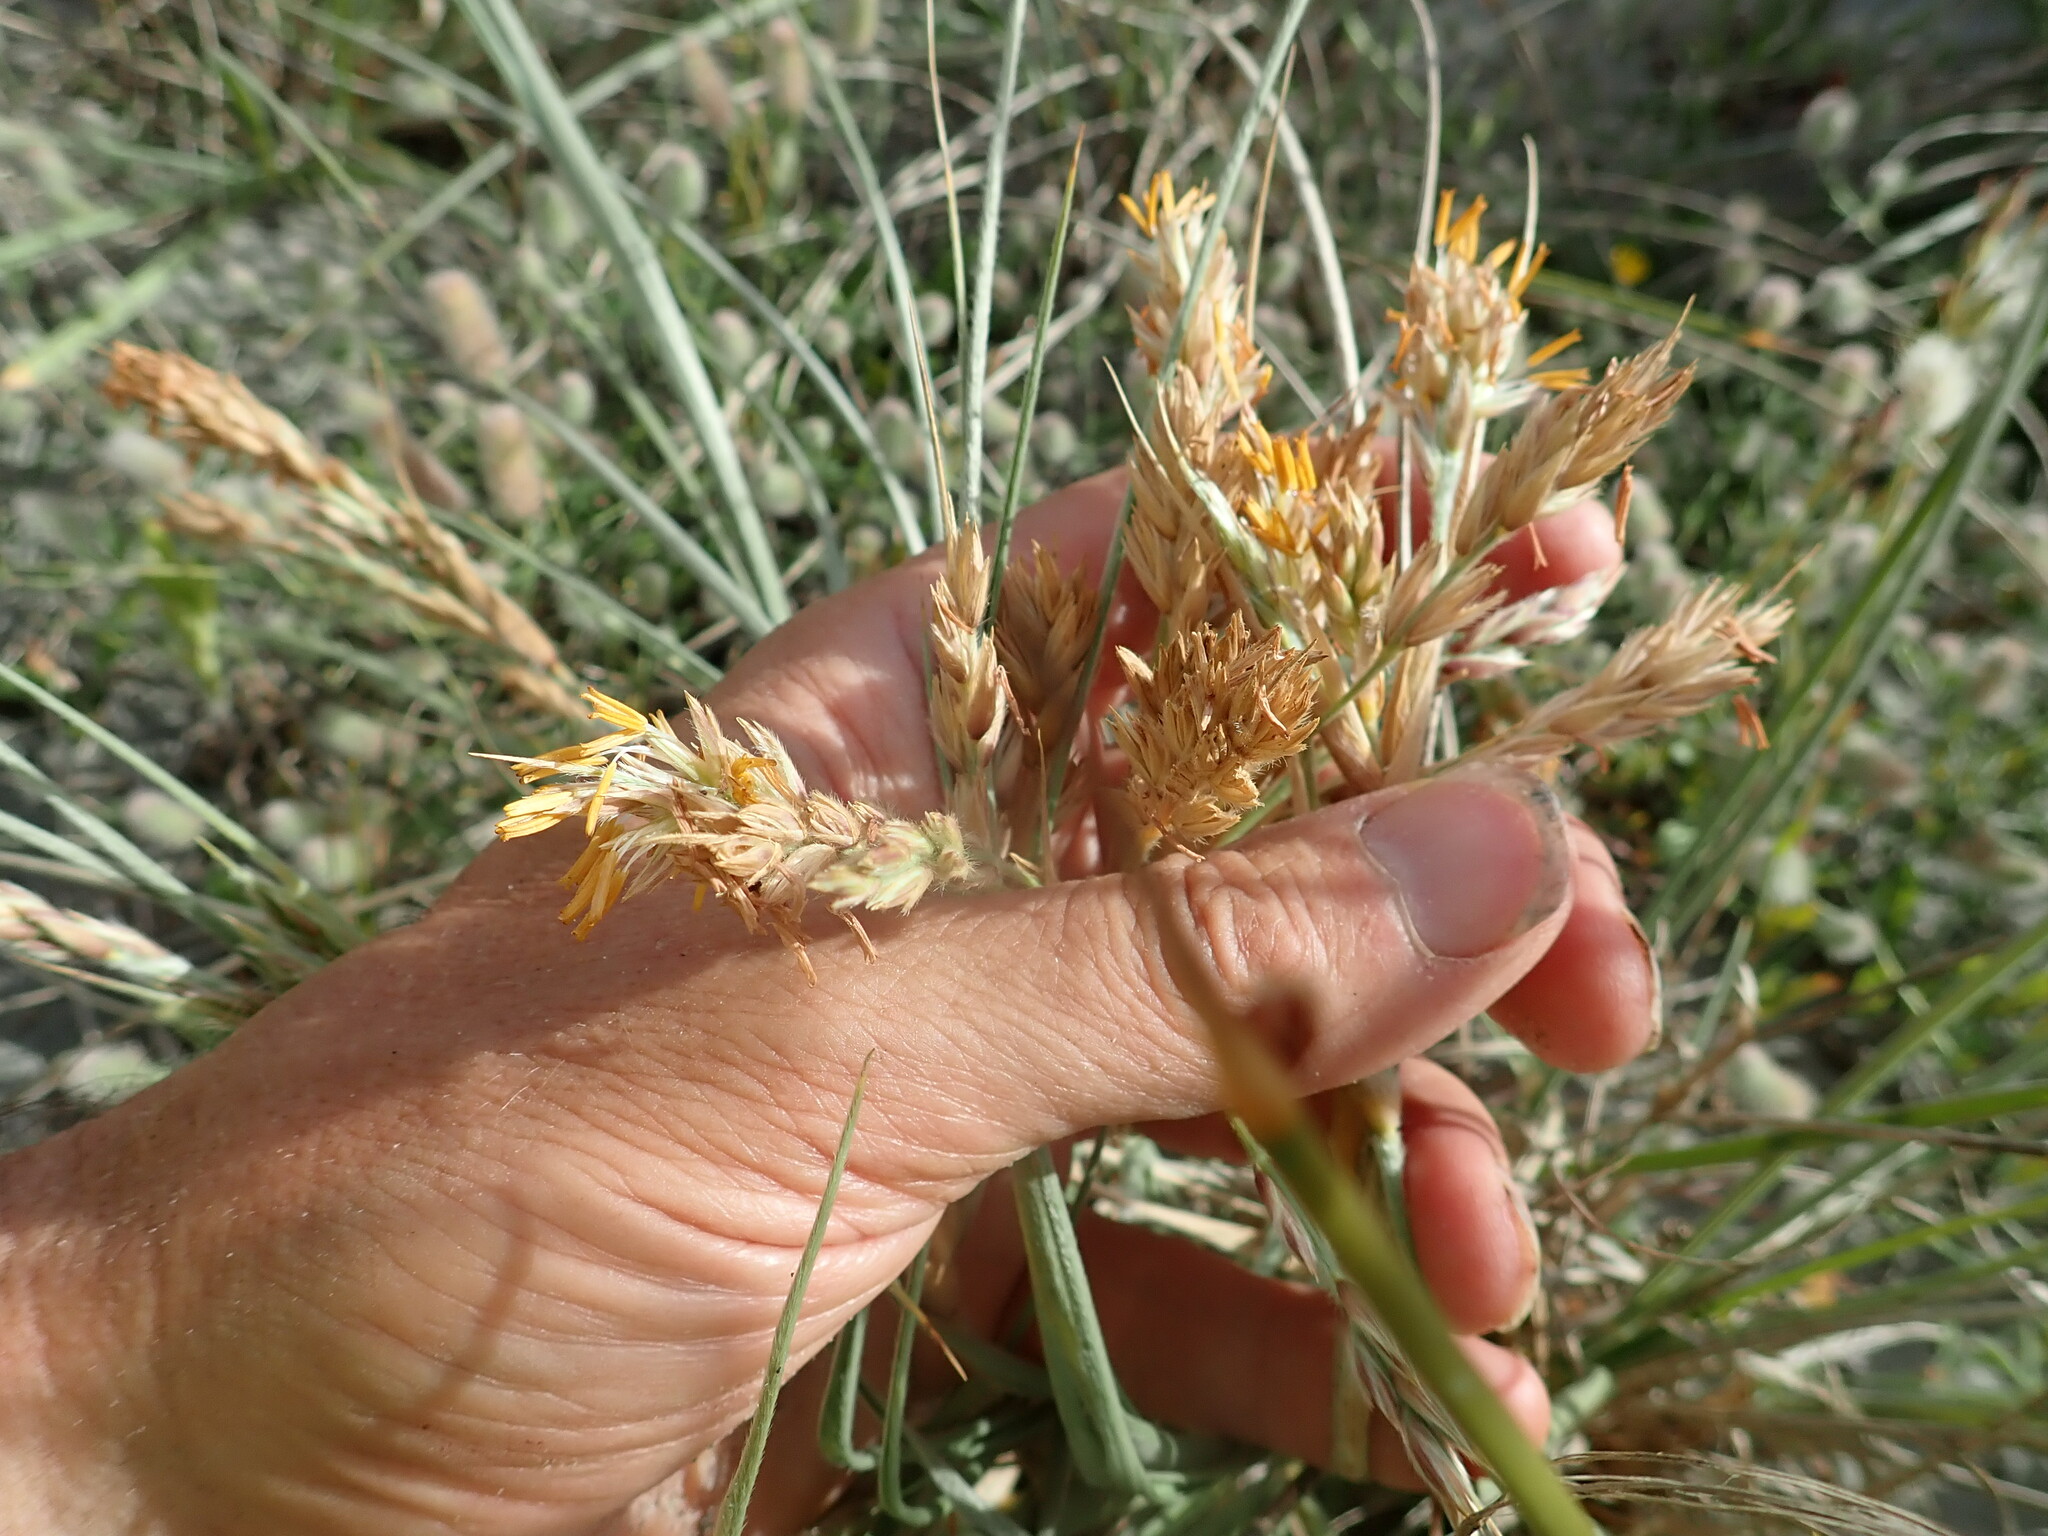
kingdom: Plantae
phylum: Tracheophyta
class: Liliopsida
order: Poales
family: Poaceae
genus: Spinifex
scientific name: Spinifex sericeus
